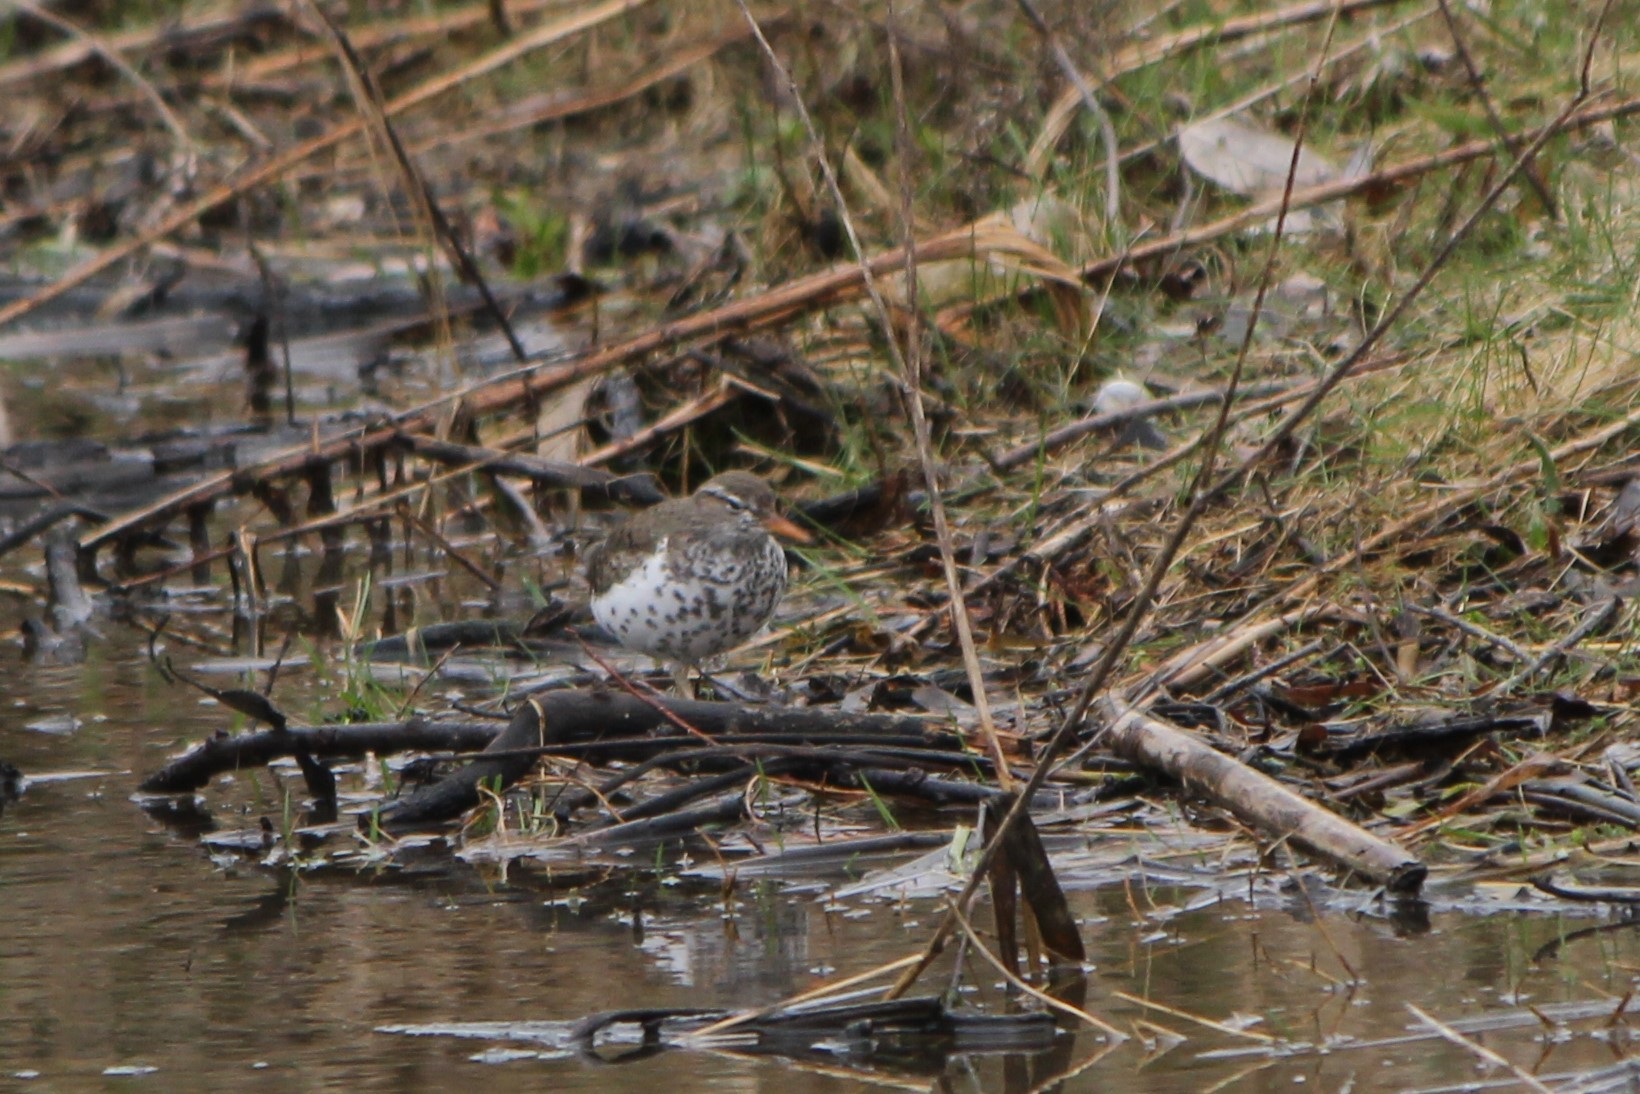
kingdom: Animalia
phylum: Chordata
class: Aves
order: Charadriiformes
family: Scolopacidae
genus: Actitis
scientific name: Actitis macularius
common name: Spotted sandpiper
